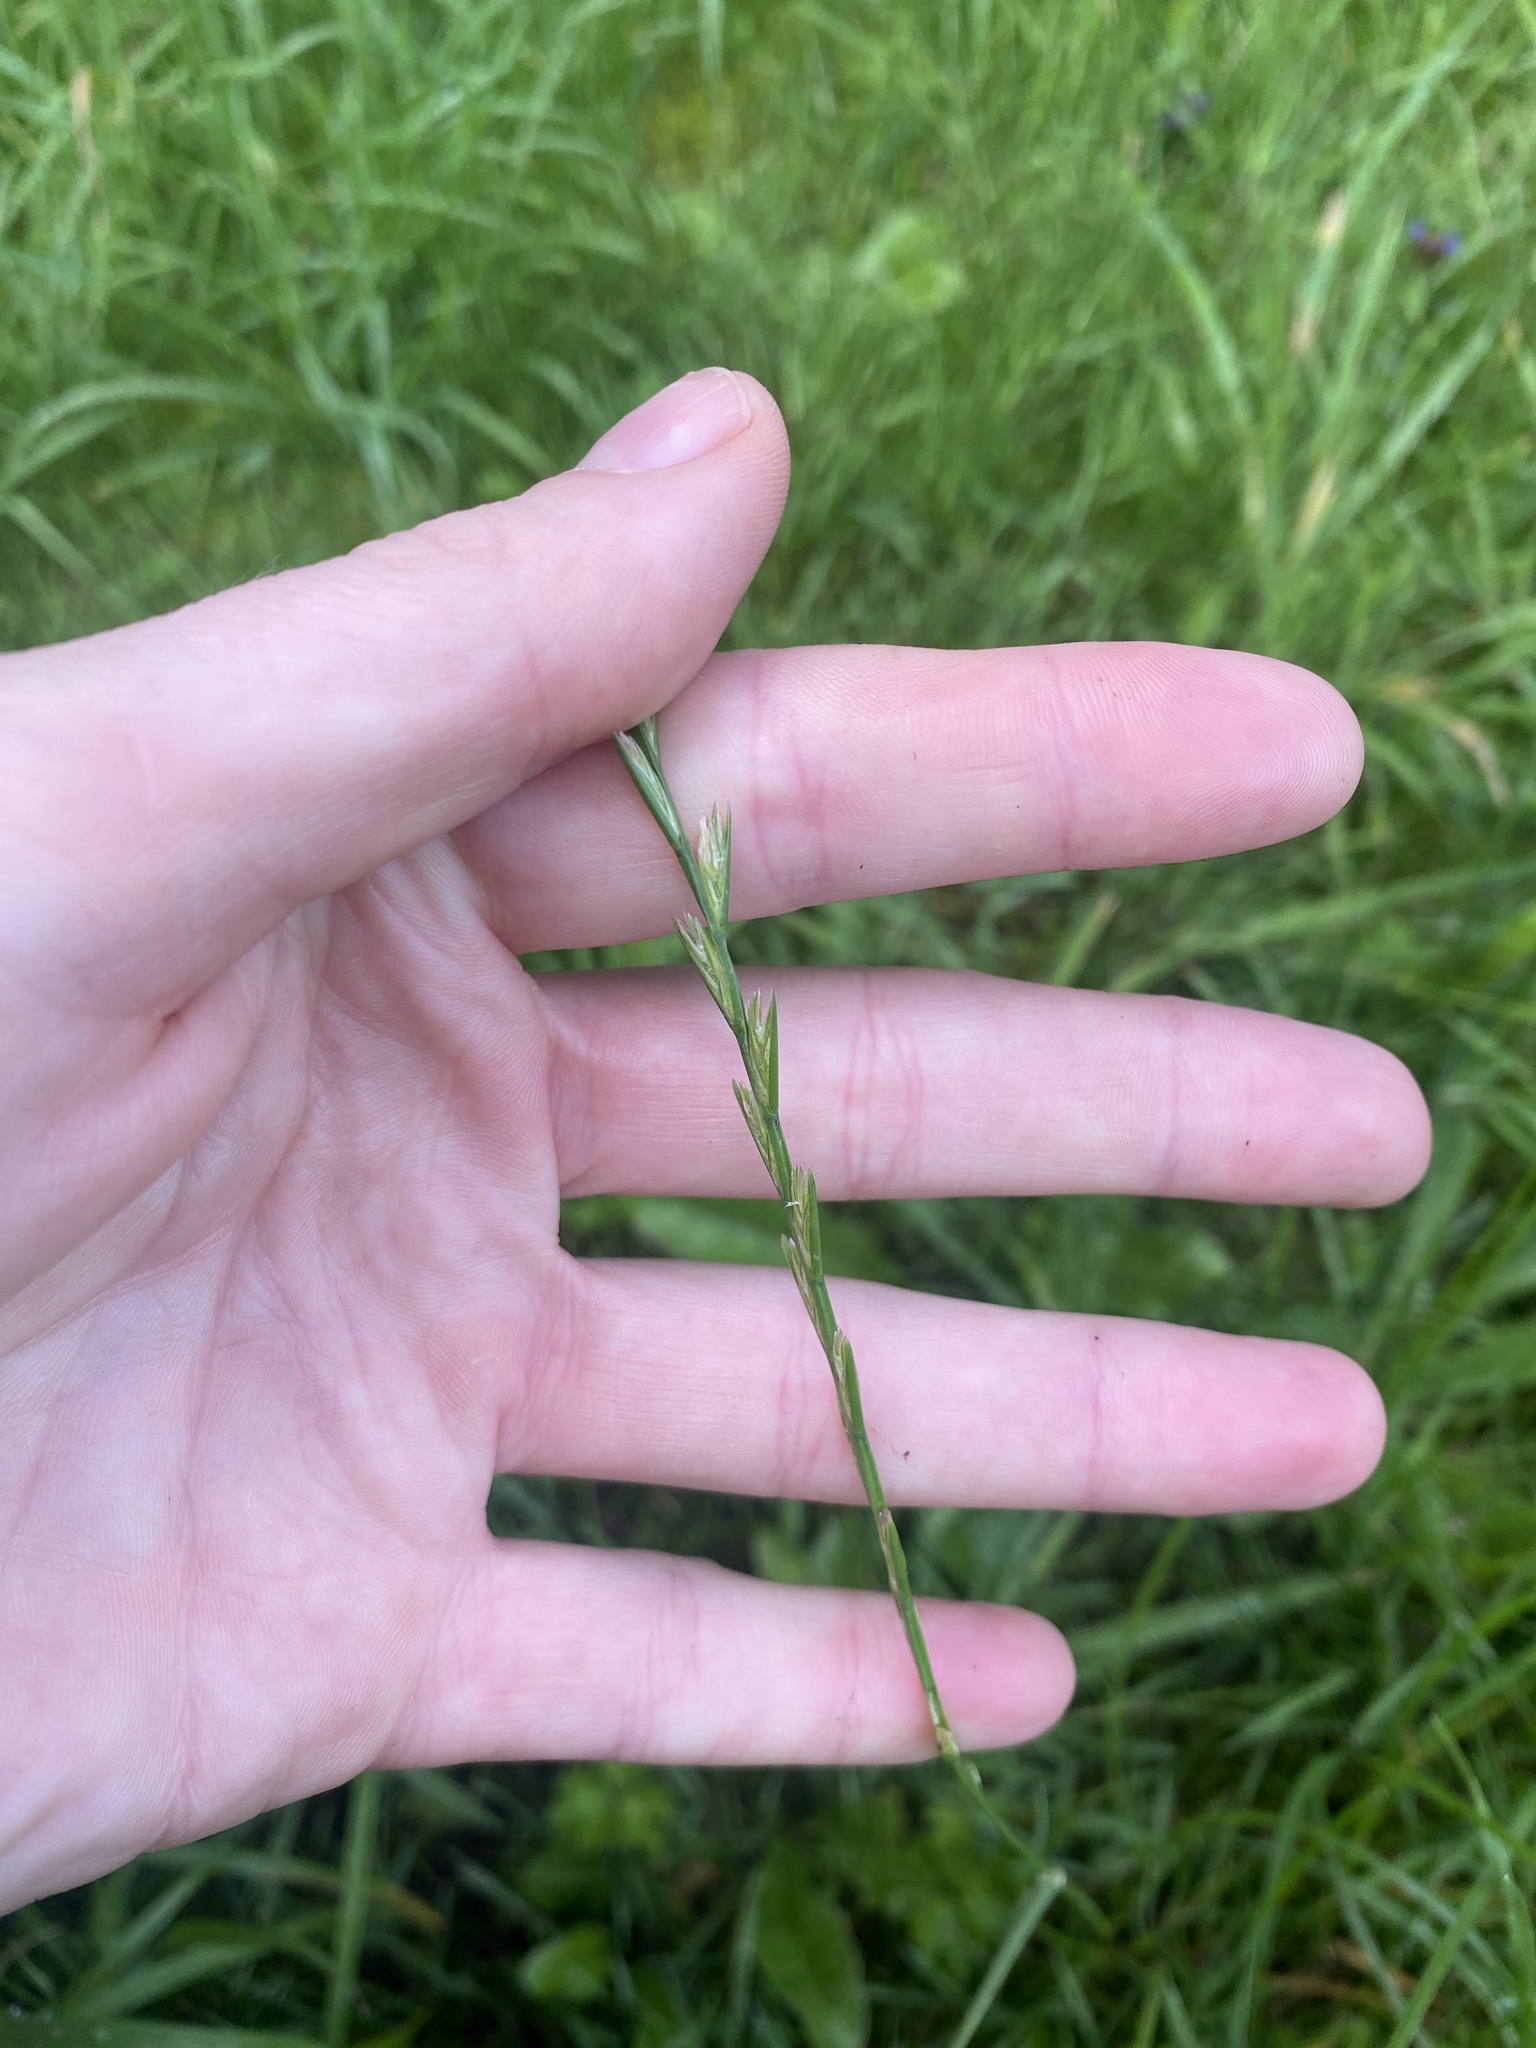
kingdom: Plantae
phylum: Tracheophyta
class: Liliopsida
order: Poales
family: Poaceae
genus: Lolium
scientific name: Lolium perenne
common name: Perennial ryegrass
